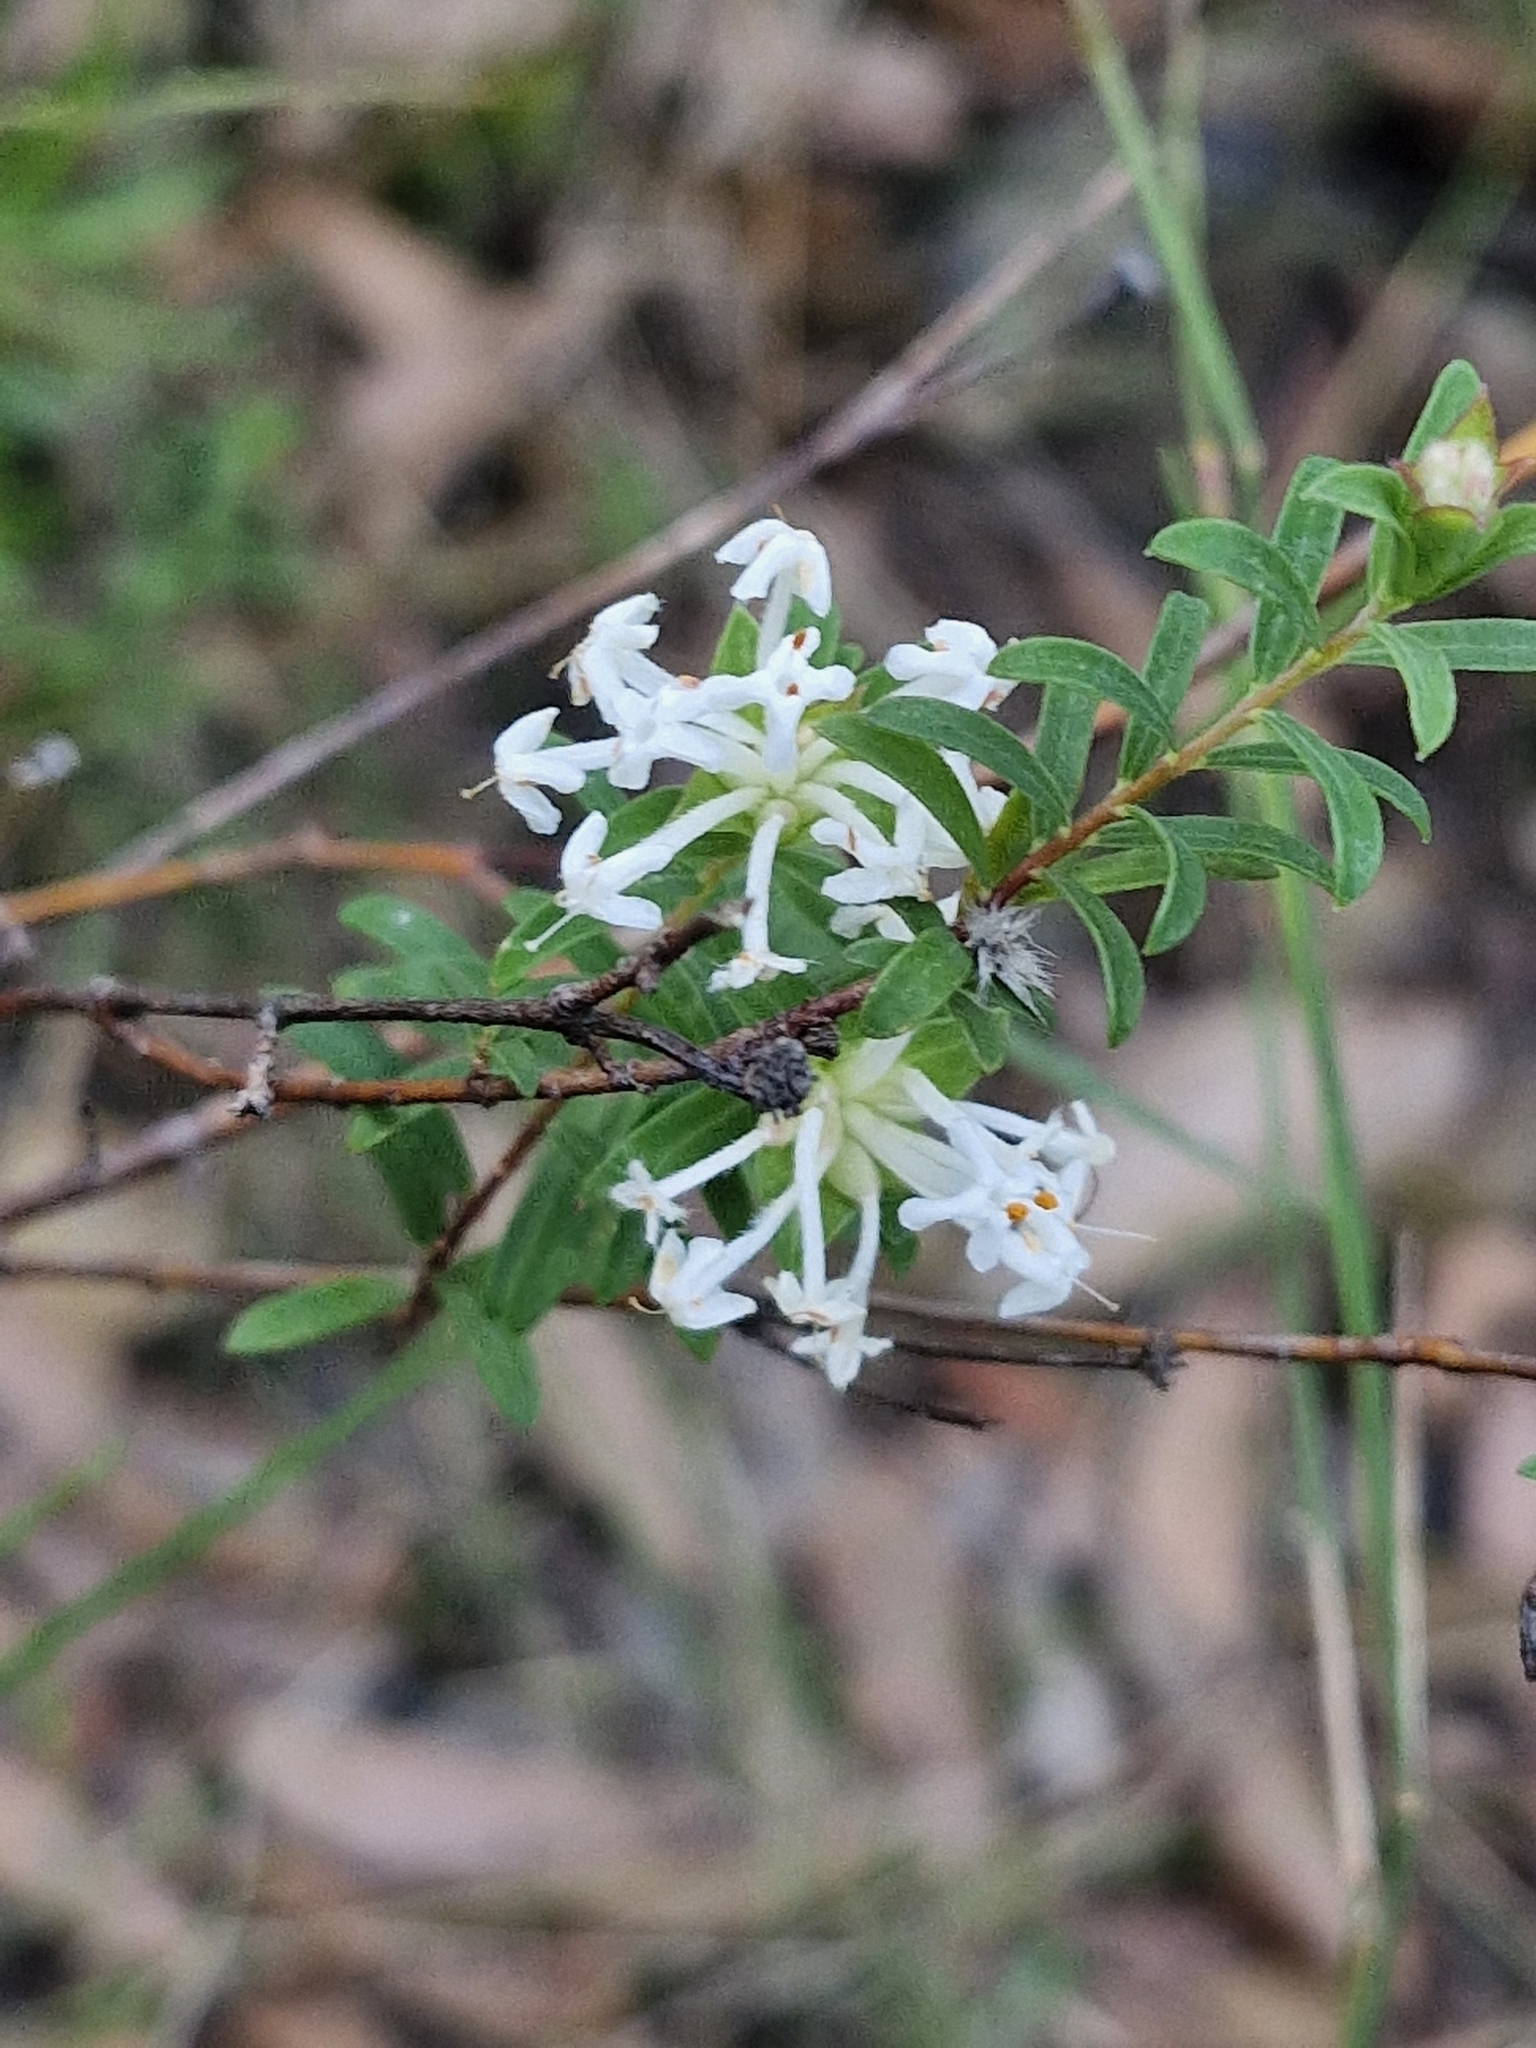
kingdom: Plantae
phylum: Tracheophyta
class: Magnoliopsida
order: Malvales
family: Thymelaeaceae
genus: Pimelea
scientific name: Pimelea linifolia
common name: Queen-of-the-bush
